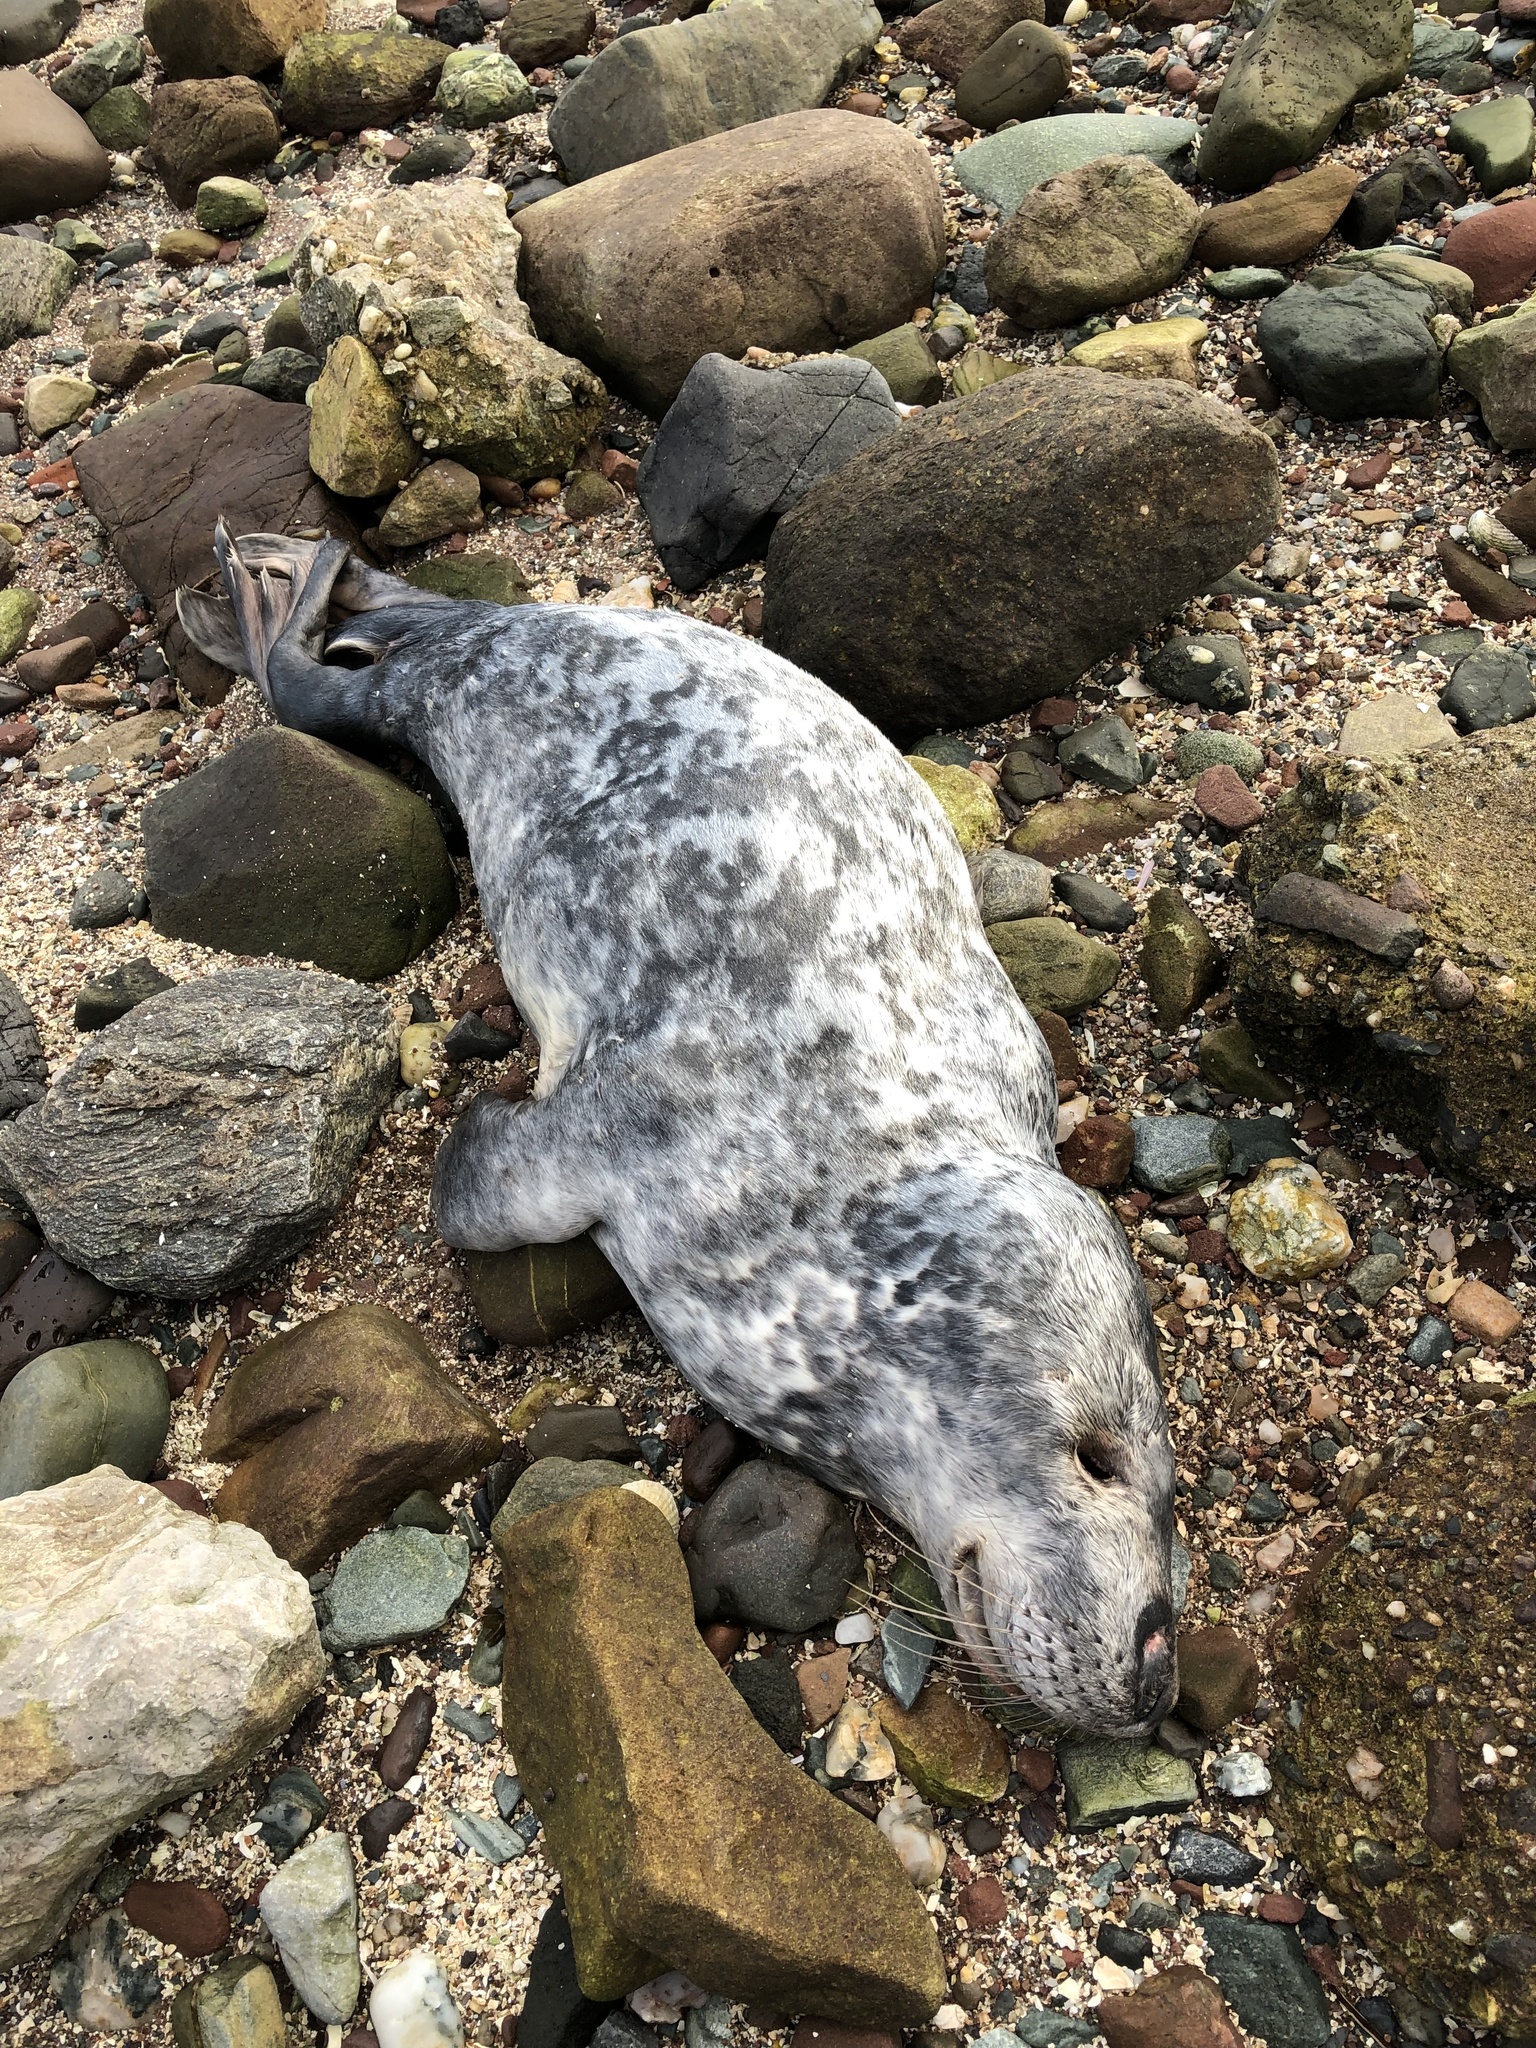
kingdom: Animalia
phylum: Chordata
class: Mammalia
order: Carnivora
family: Phocidae
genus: Halichoerus
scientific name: Halichoerus grypus
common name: Grey seal
